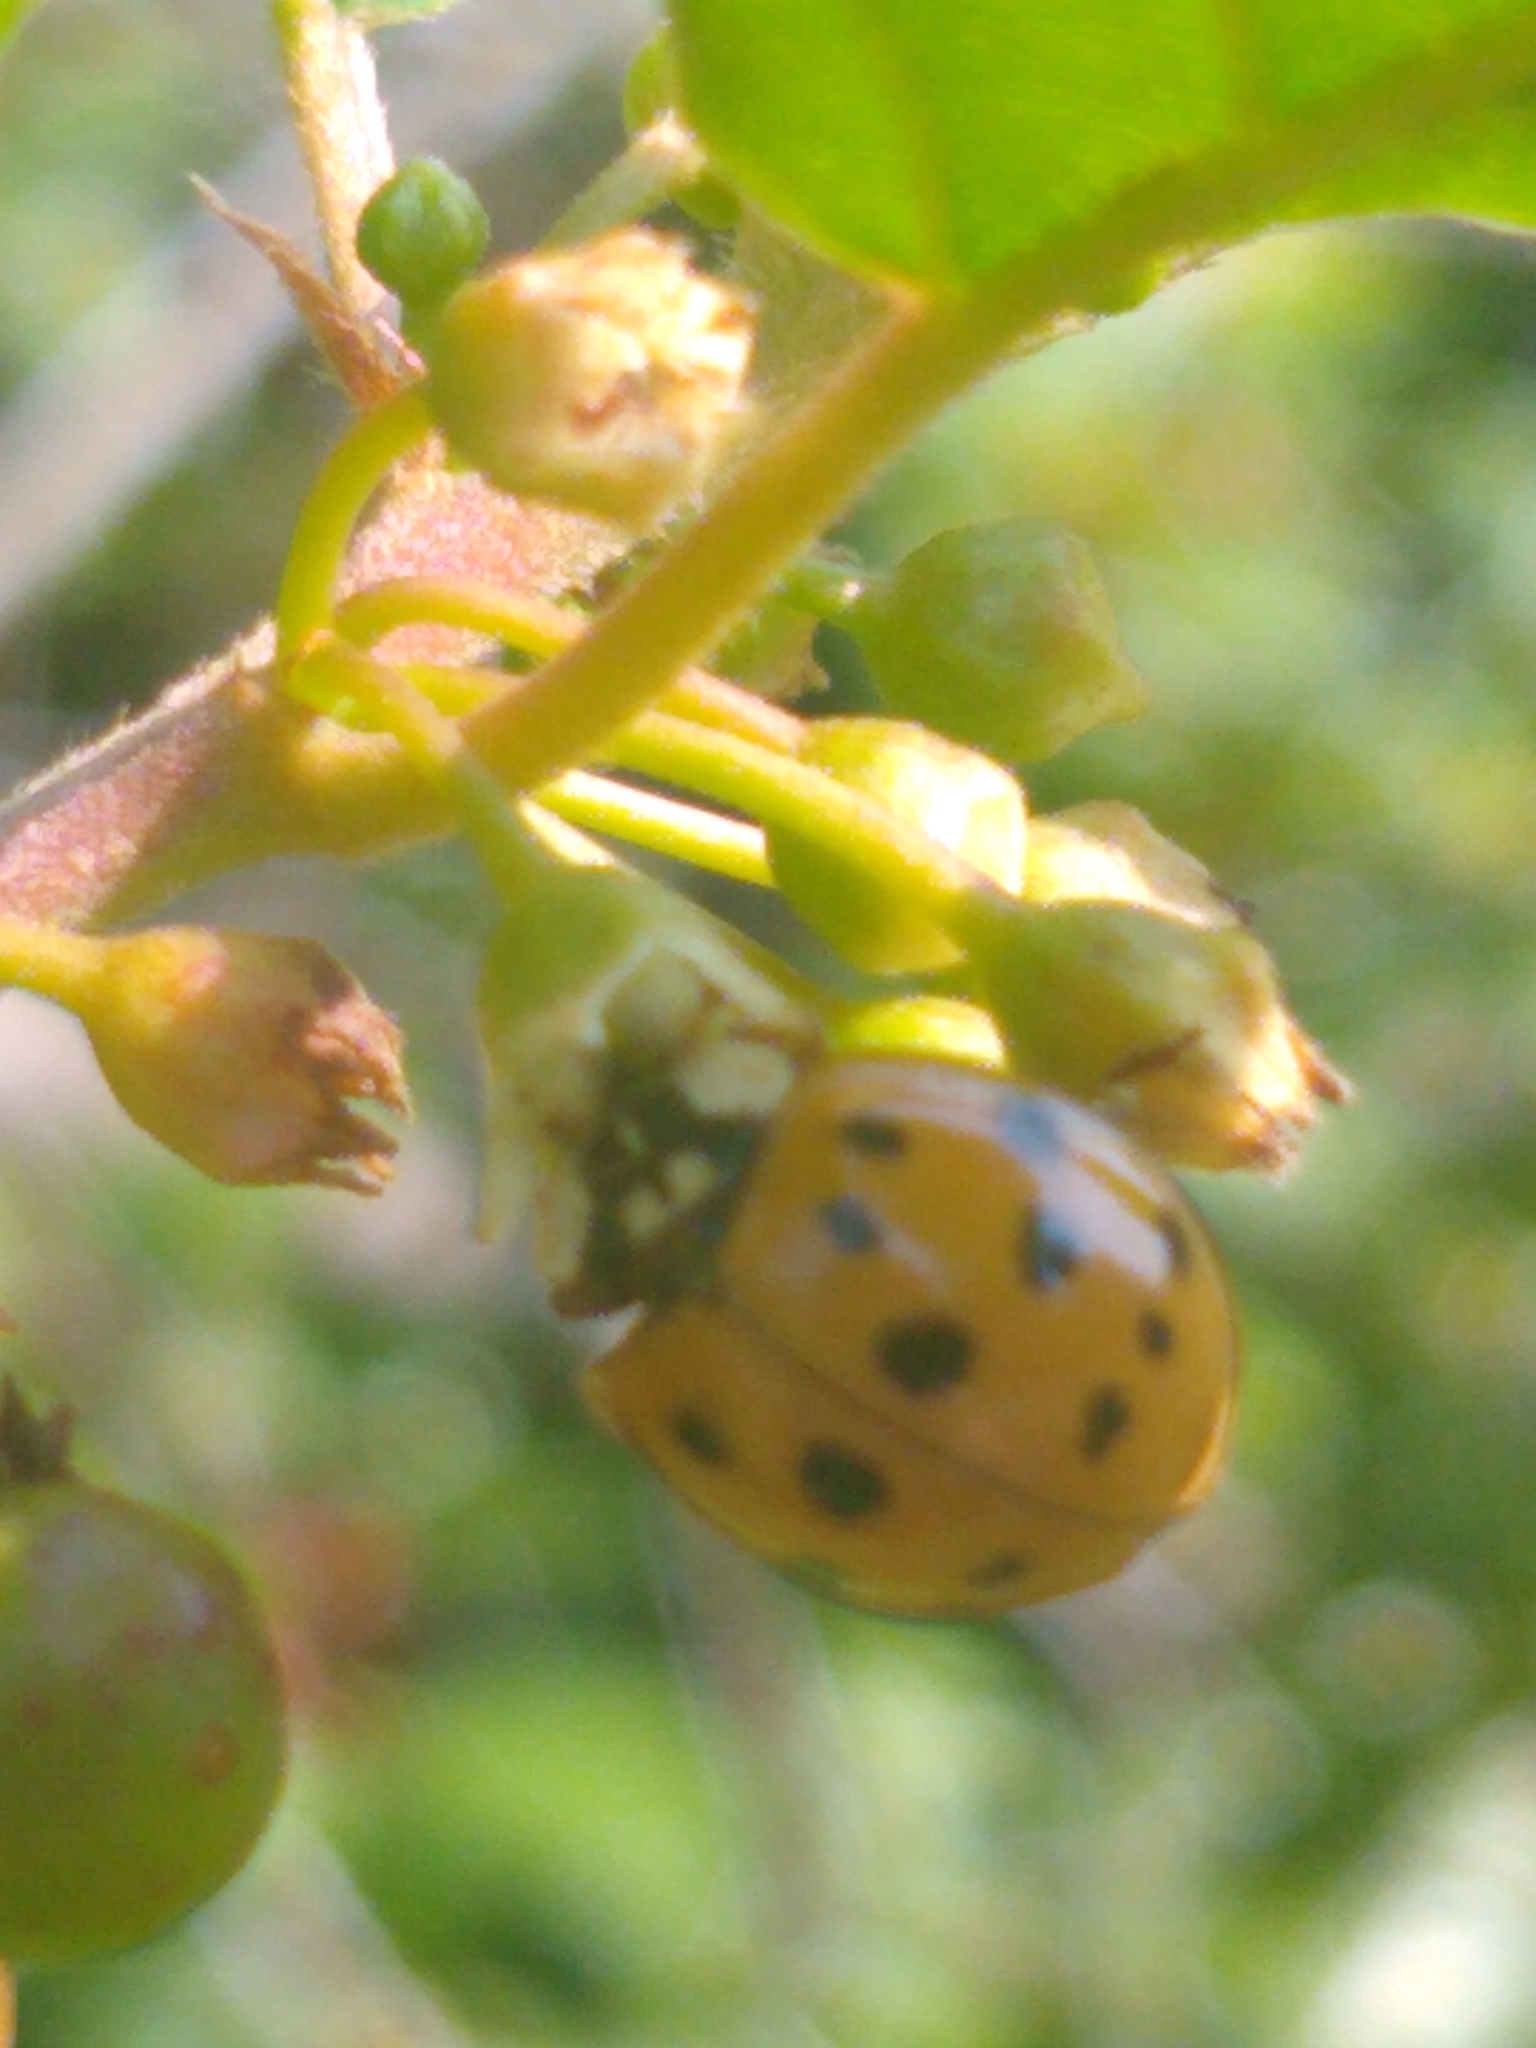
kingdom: Animalia
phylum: Arthropoda
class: Insecta
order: Coleoptera
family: Coccinellidae
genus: Harmonia
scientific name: Harmonia axyridis
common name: Harlequin ladybird
